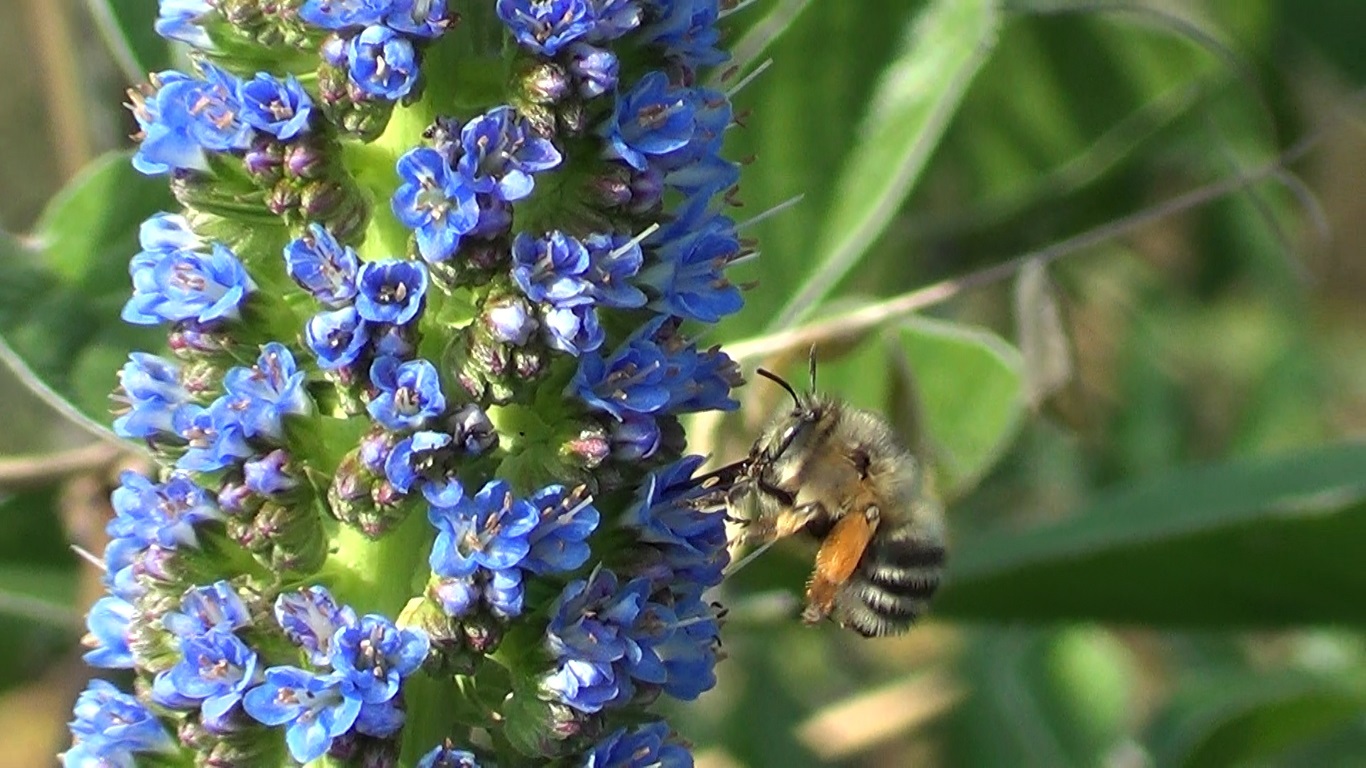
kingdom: Animalia
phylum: Arthropoda
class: Insecta
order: Hymenoptera
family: Apidae
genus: Anthophora
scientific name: Anthophora dispar
